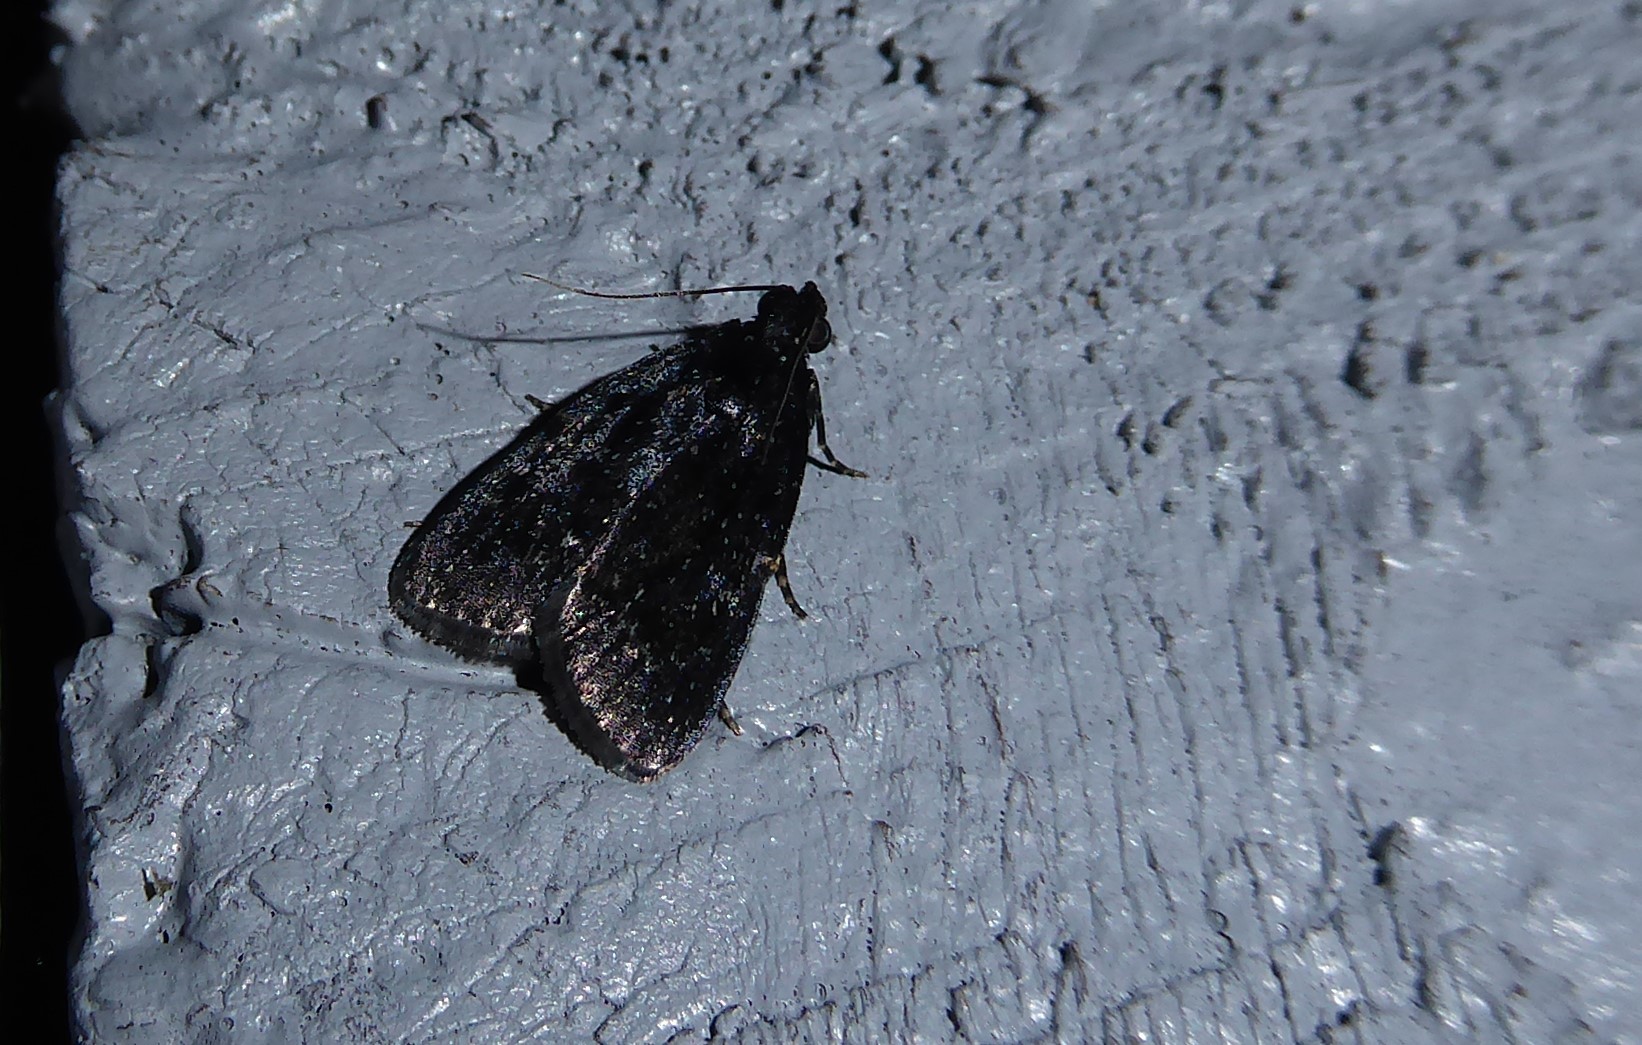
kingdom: Animalia
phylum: Arthropoda
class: Insecta
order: Lepidoptera
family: Pyralidae
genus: Stericta
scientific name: Stericta carbonalis
